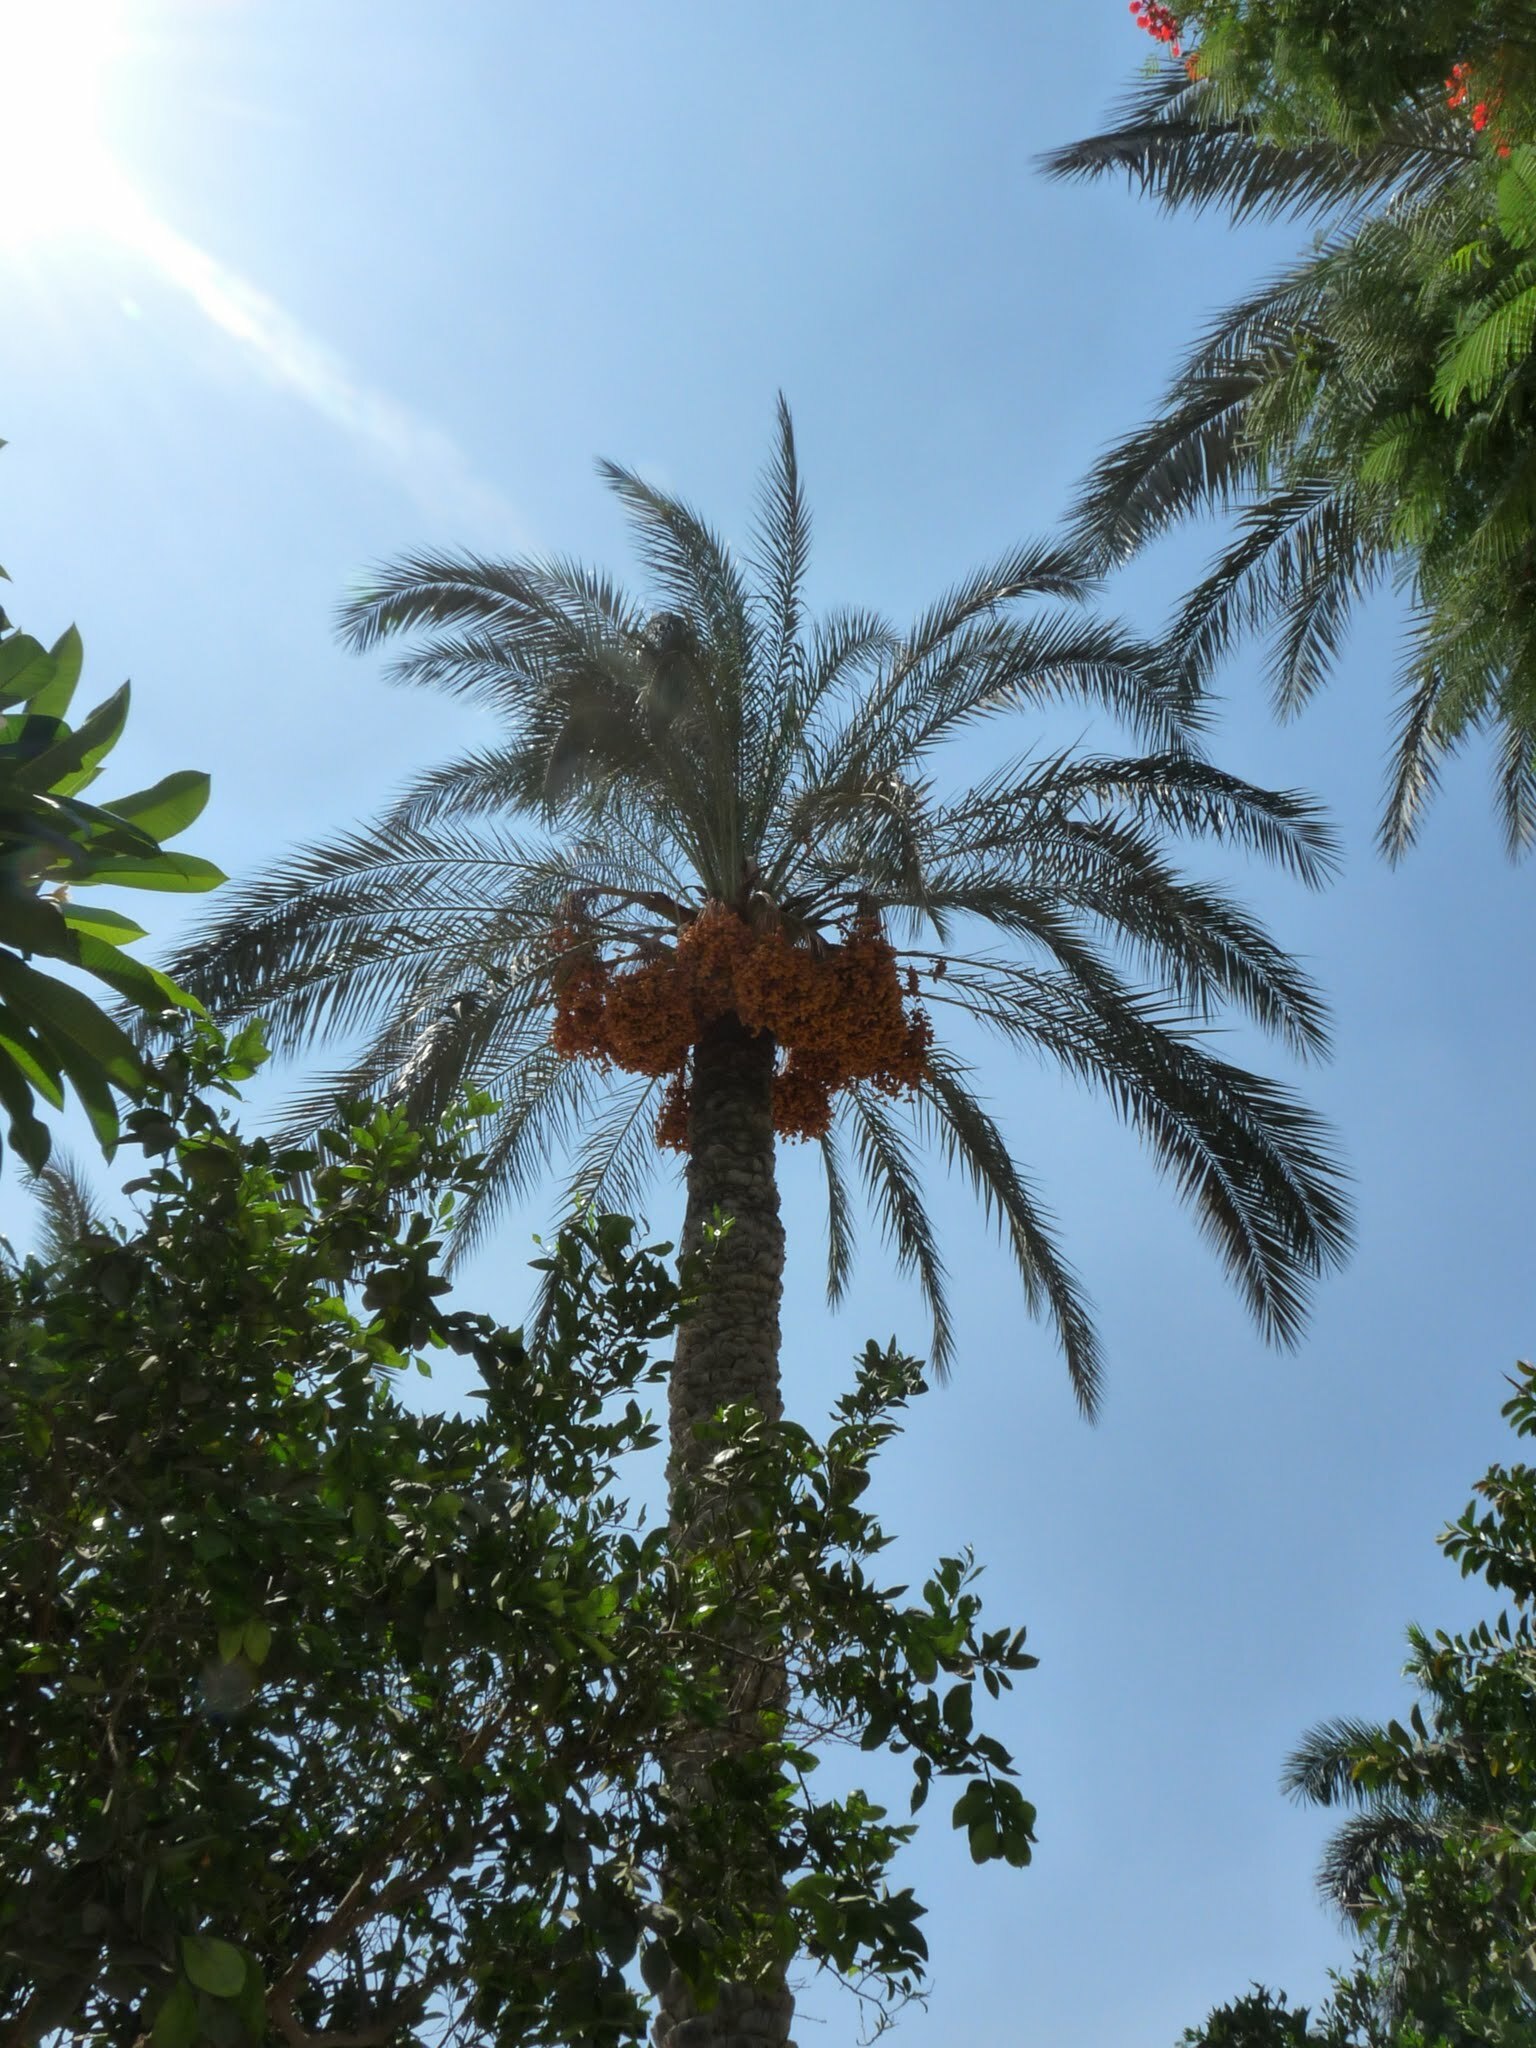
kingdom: Plantae
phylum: Tracheophyta
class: Liliopsida
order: Arecales
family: Arecaceae
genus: Phoenix
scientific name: Phoenix dactylifera
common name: Date palm
